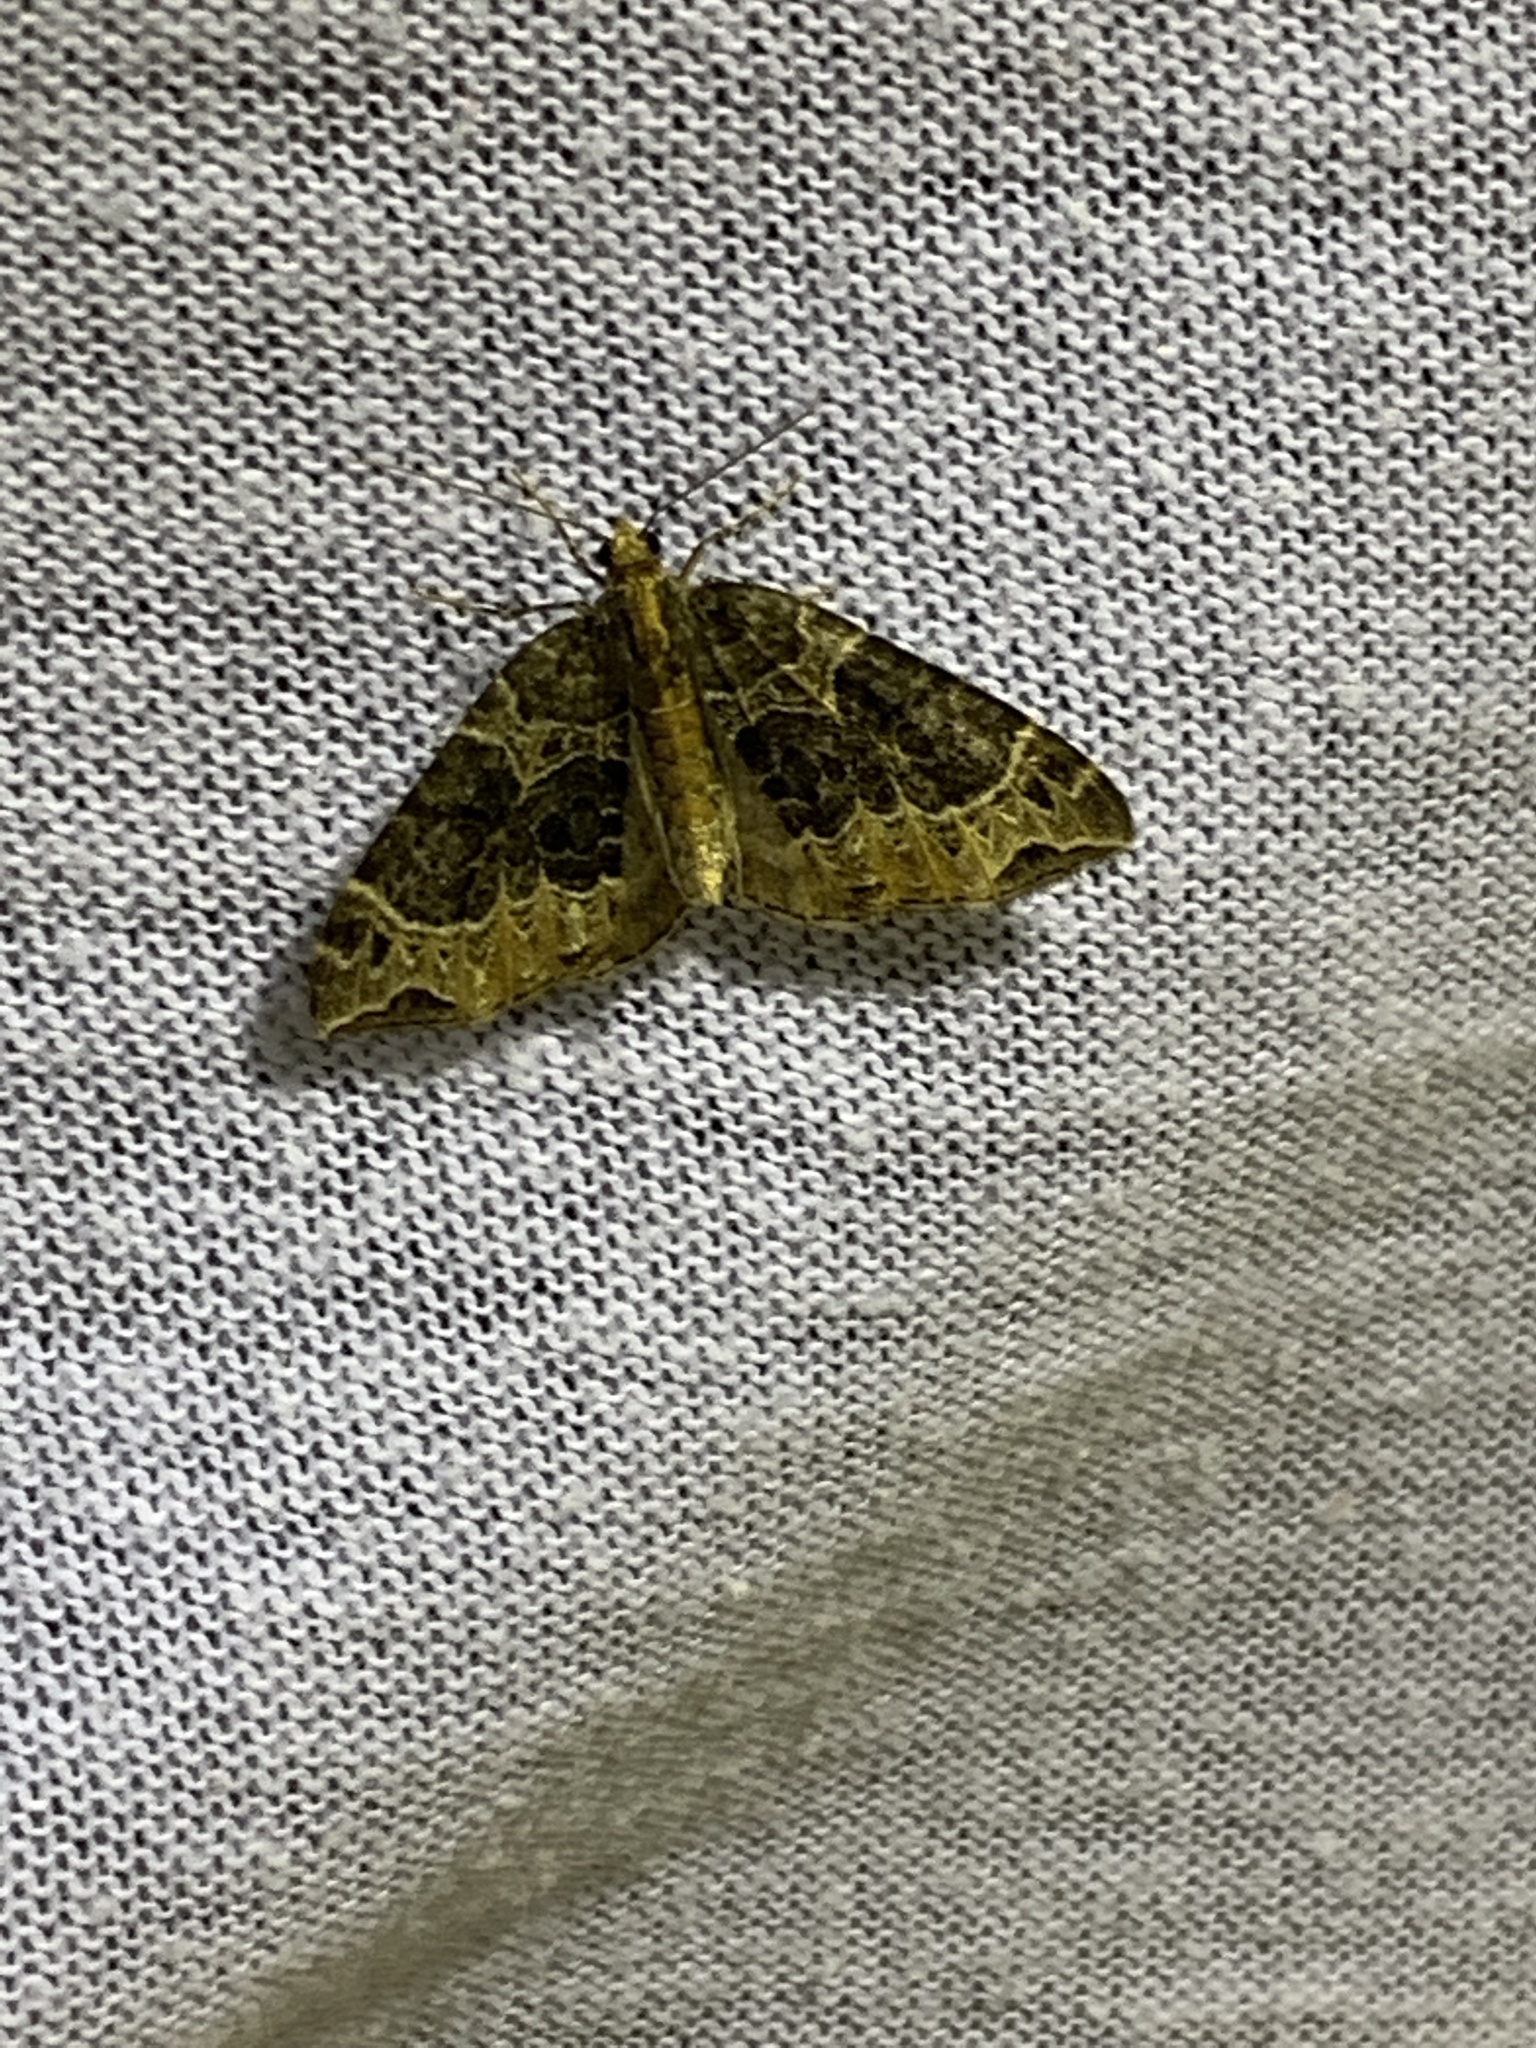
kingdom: Animalia
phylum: Arthropoda
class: Insecta
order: Lepidoptera
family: Geometridae
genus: Ecliptopera
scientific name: Ecliptopera silaceata
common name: Small phoenix
